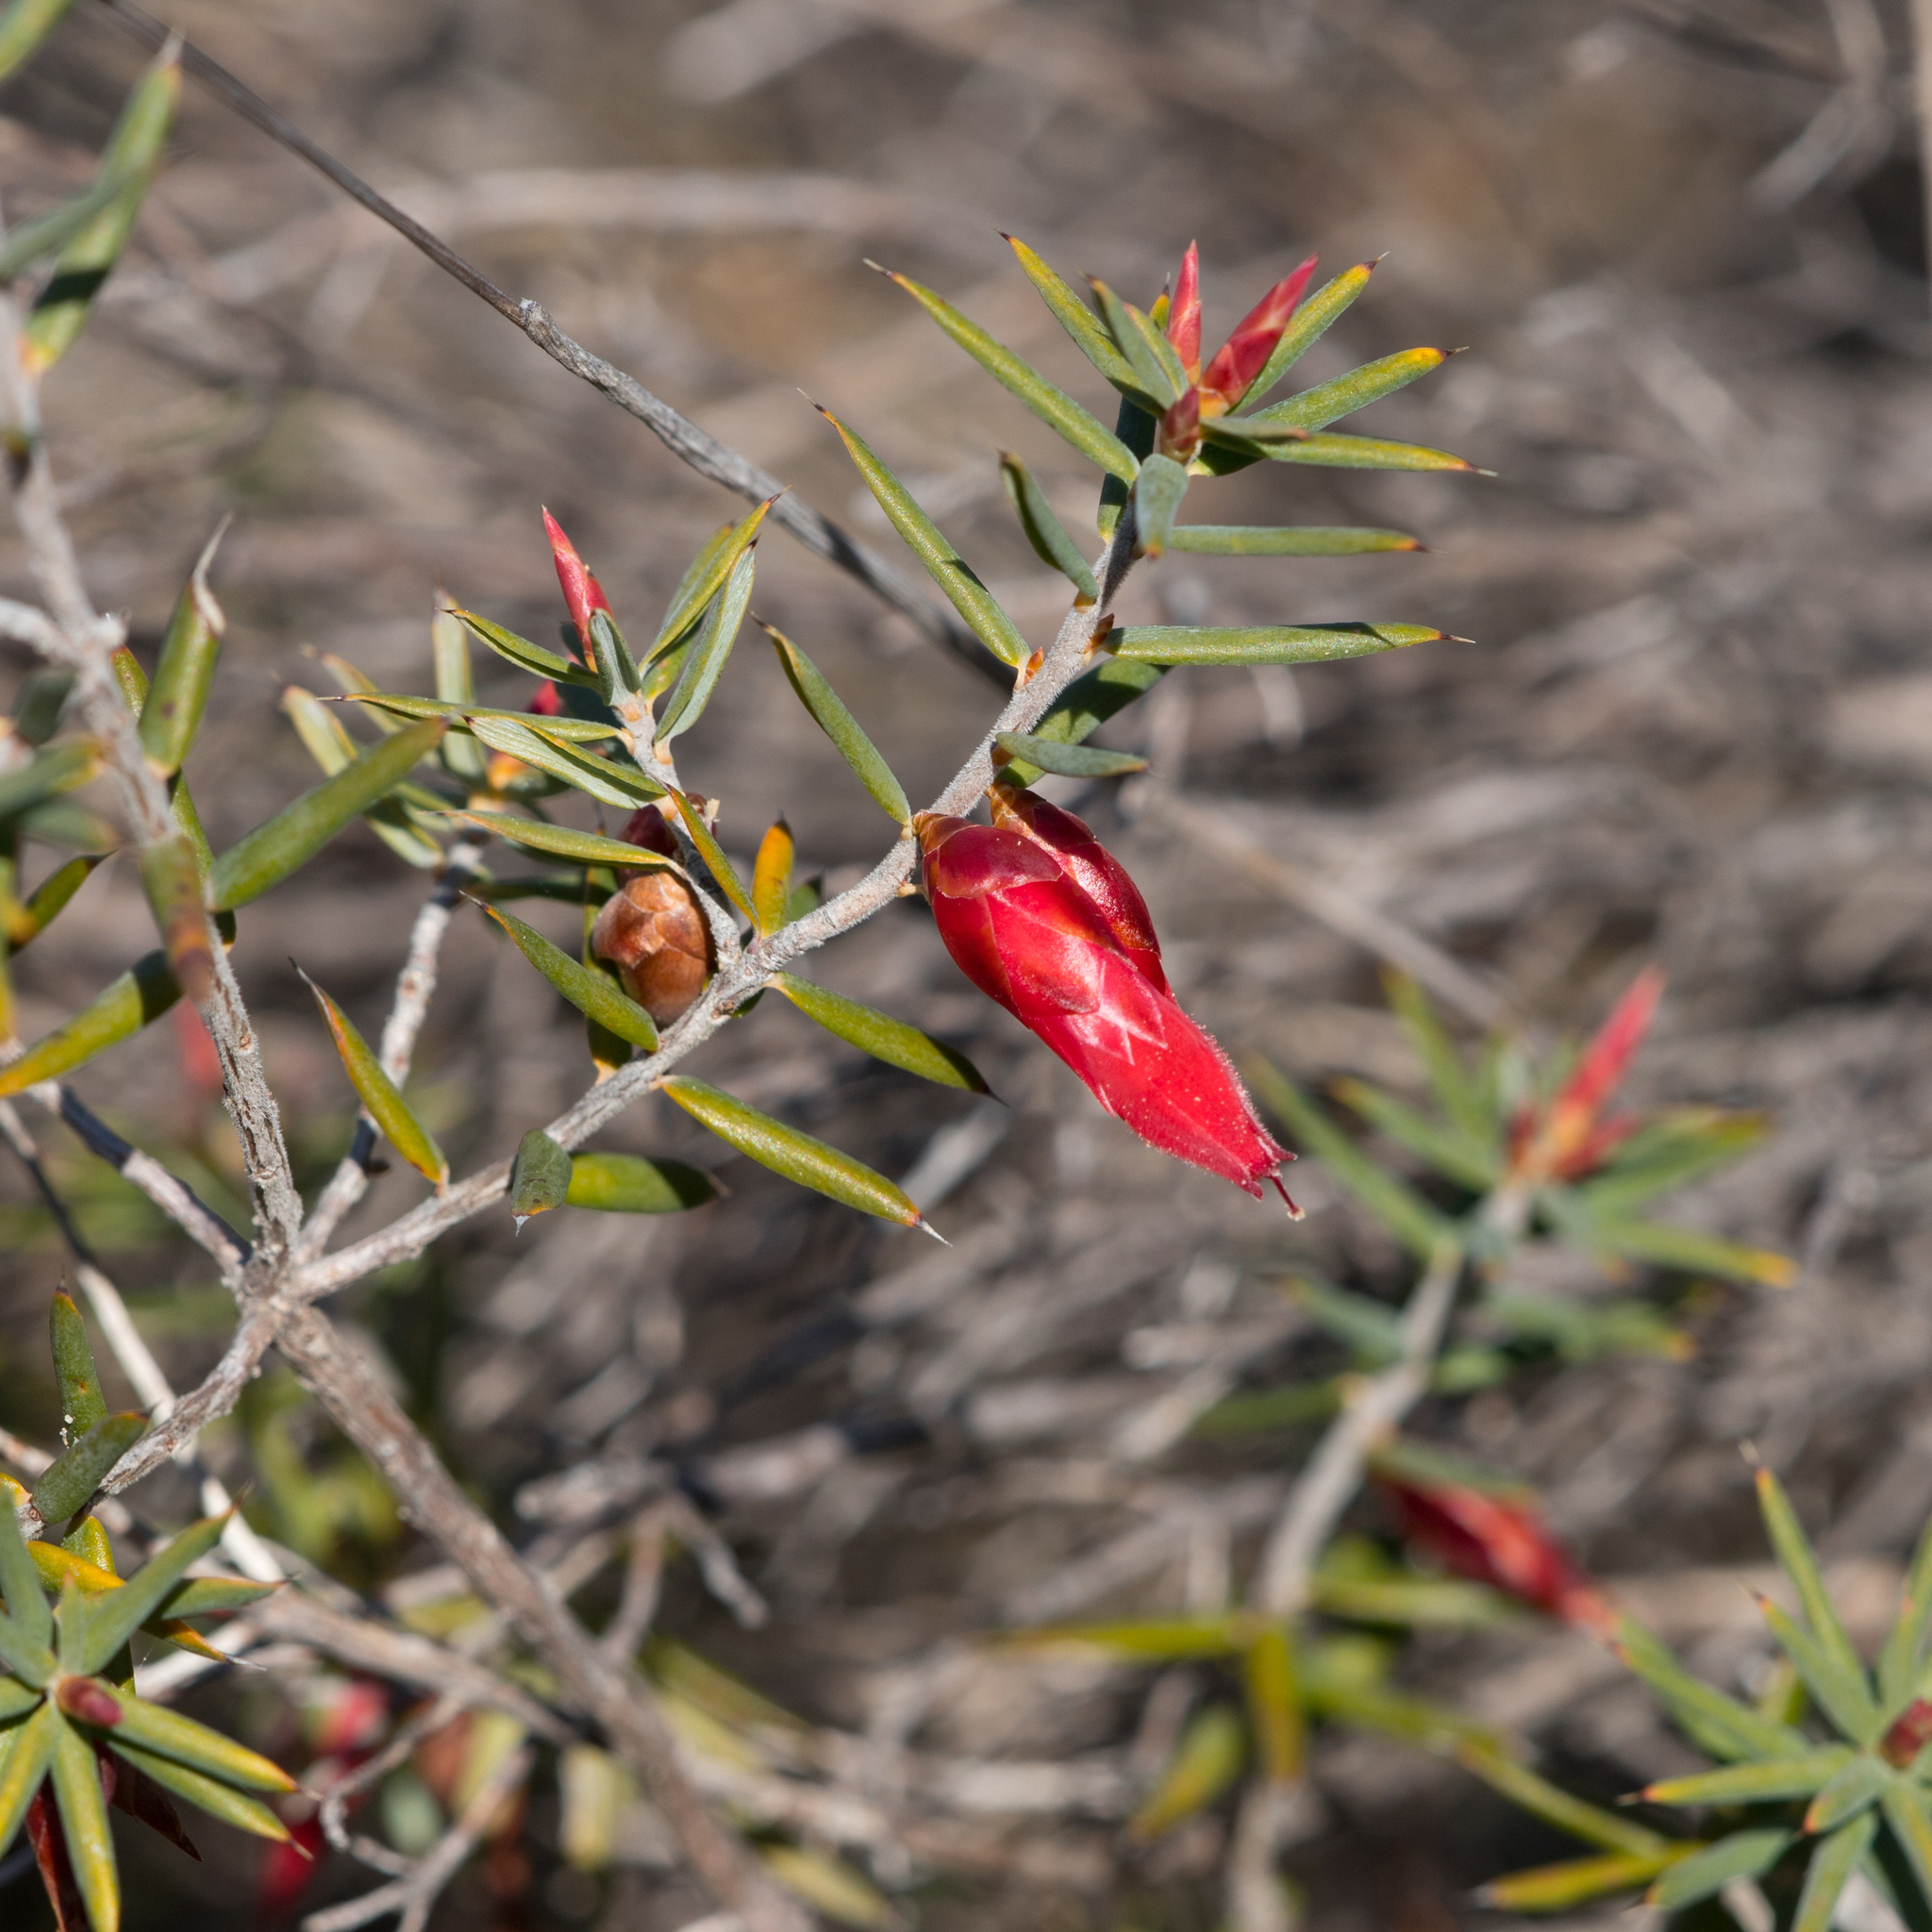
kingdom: Plantae
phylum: Tracheophyta
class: Magnoliopsida
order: Ericales
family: Ericaceae
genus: Stenanthera
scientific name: Stenanthera conostephioides
